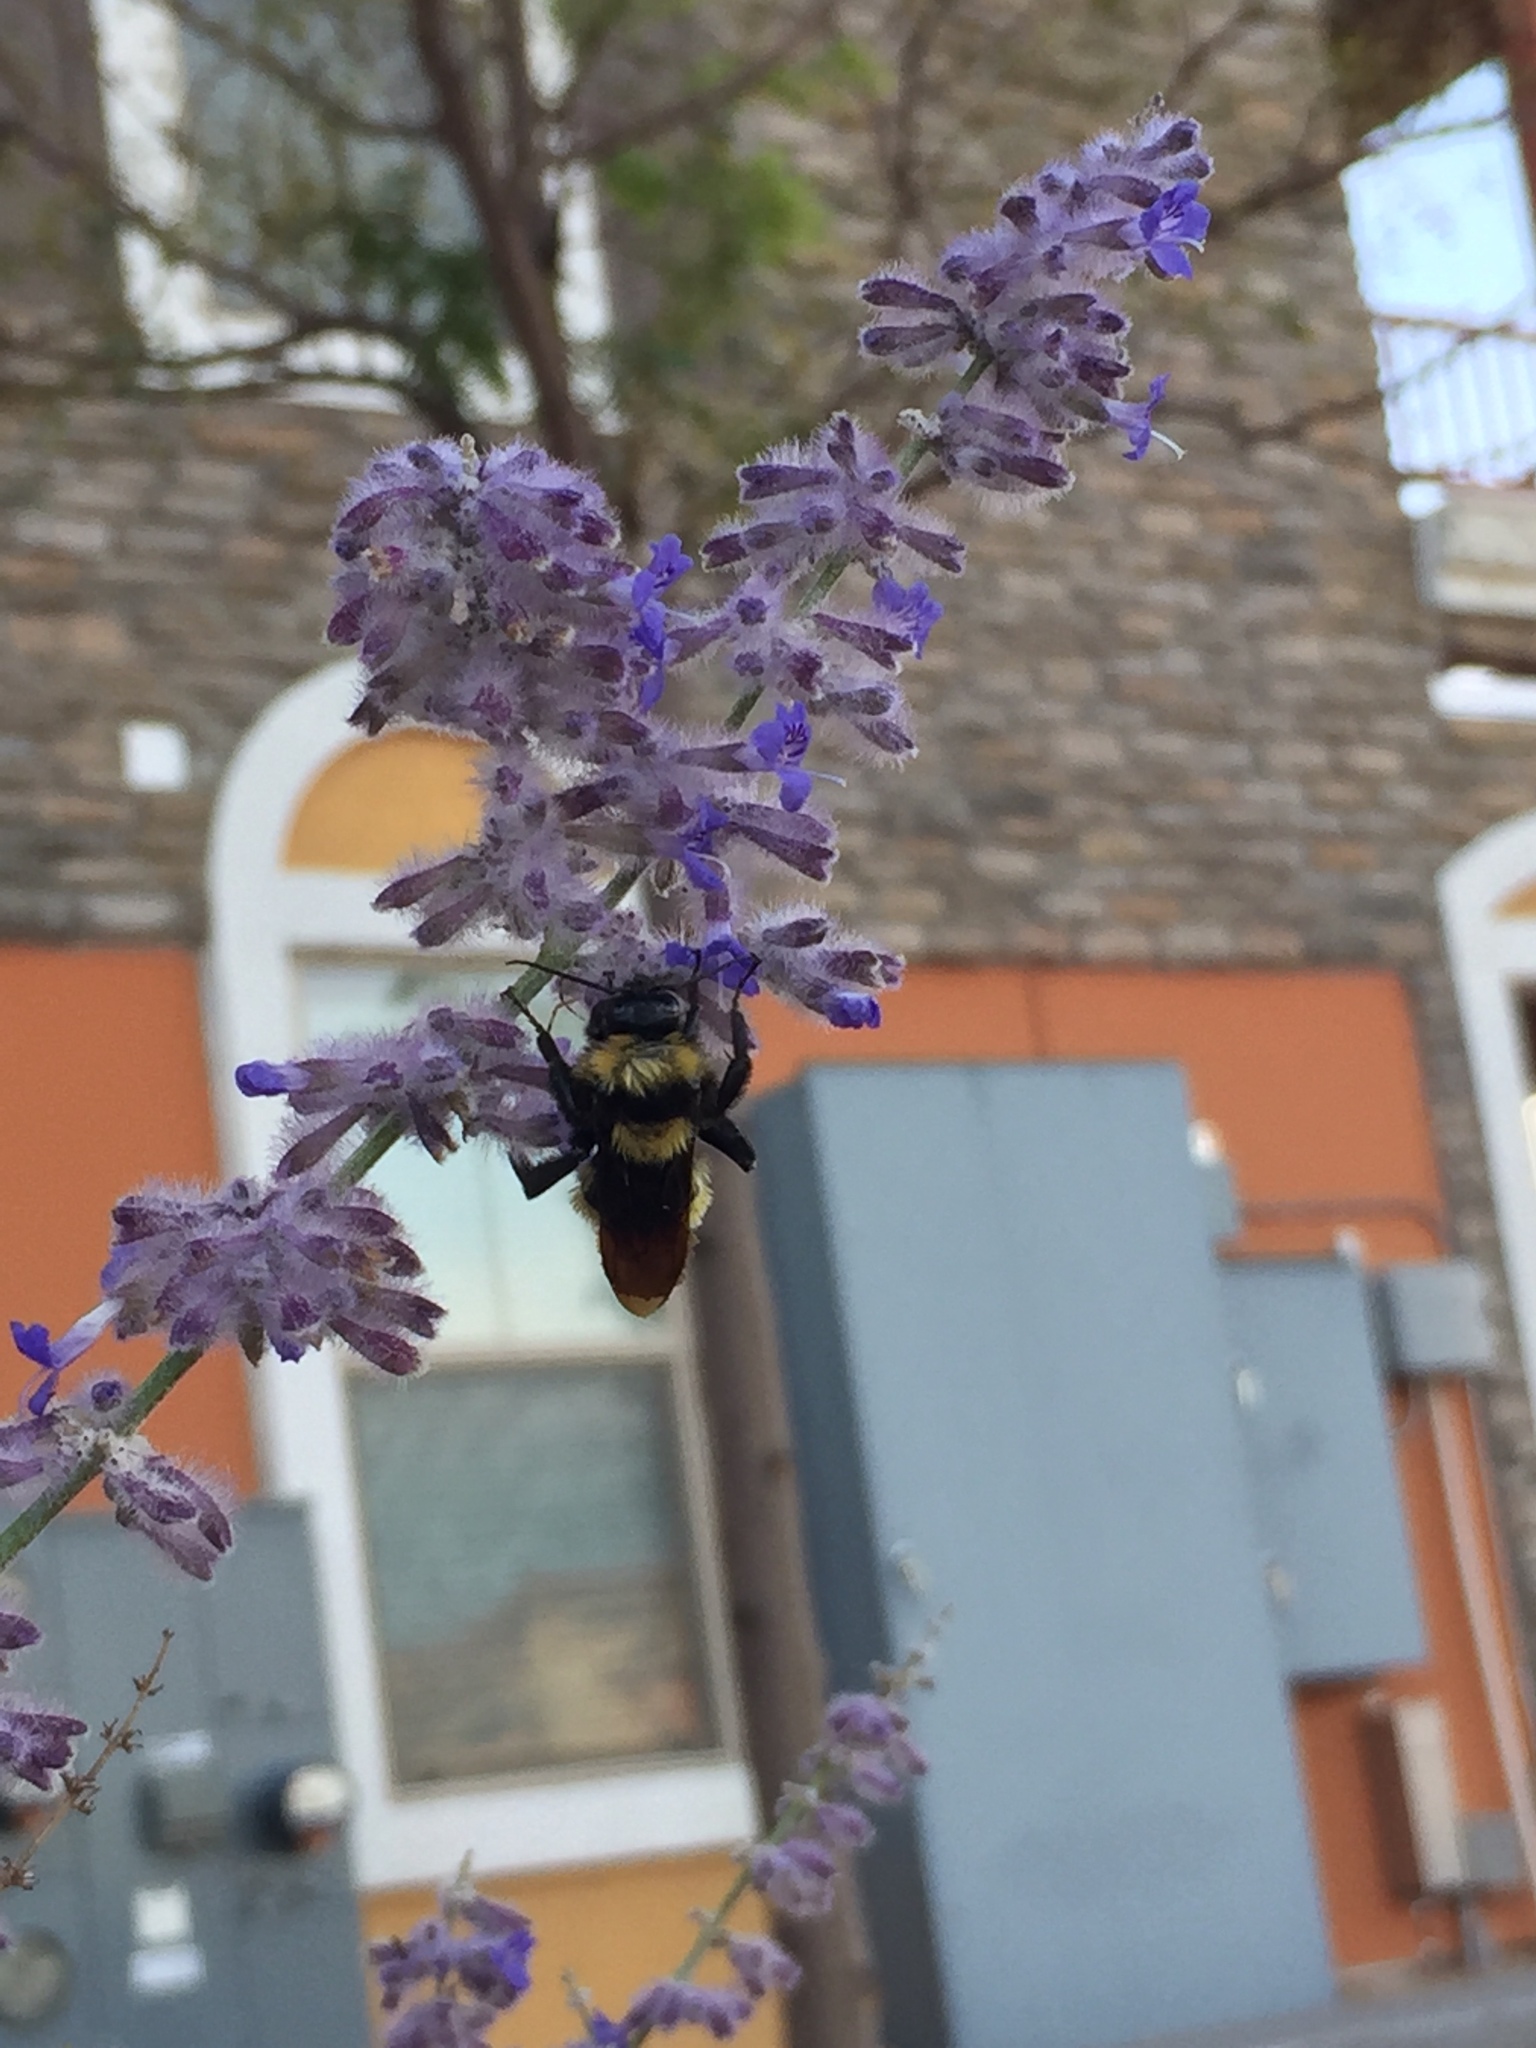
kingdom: Animalia
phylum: Arthropoda
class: Insecta
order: Hymenoptera
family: Apidae
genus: Bombus
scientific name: Bombus sonorus
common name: Sonoran bumble bee
